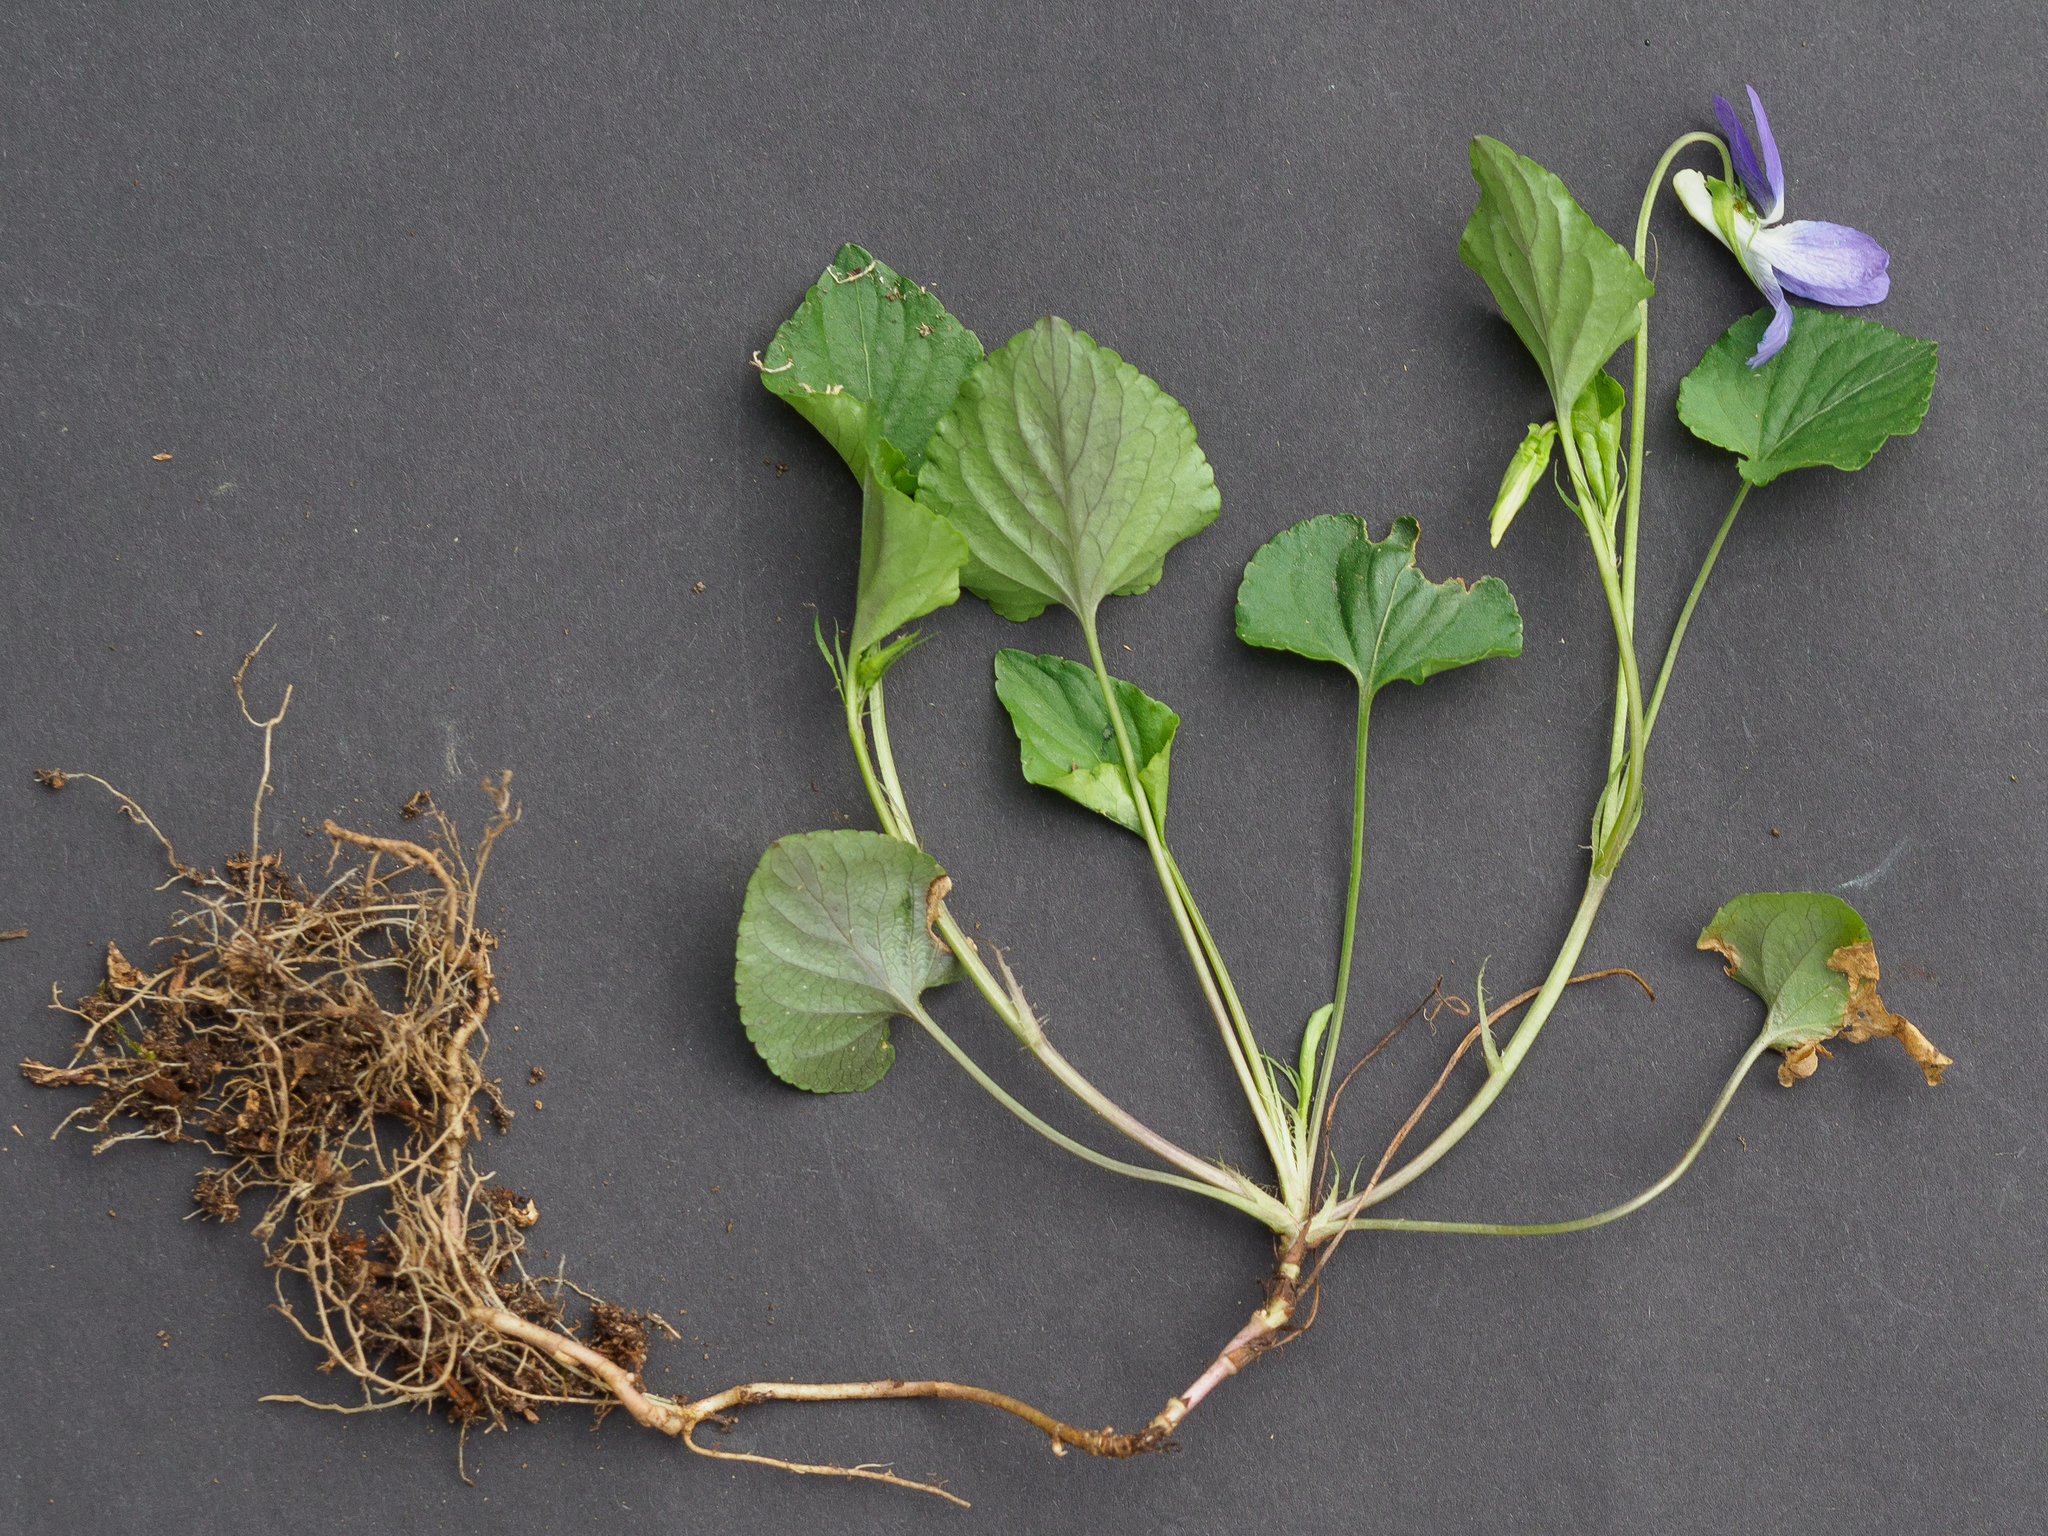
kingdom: Plantae
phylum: Tracheophyta
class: Magnoliopsida
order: Malpighiales
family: Violaceae
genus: Viola
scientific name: Viola riviniana
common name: Common dog-violet
